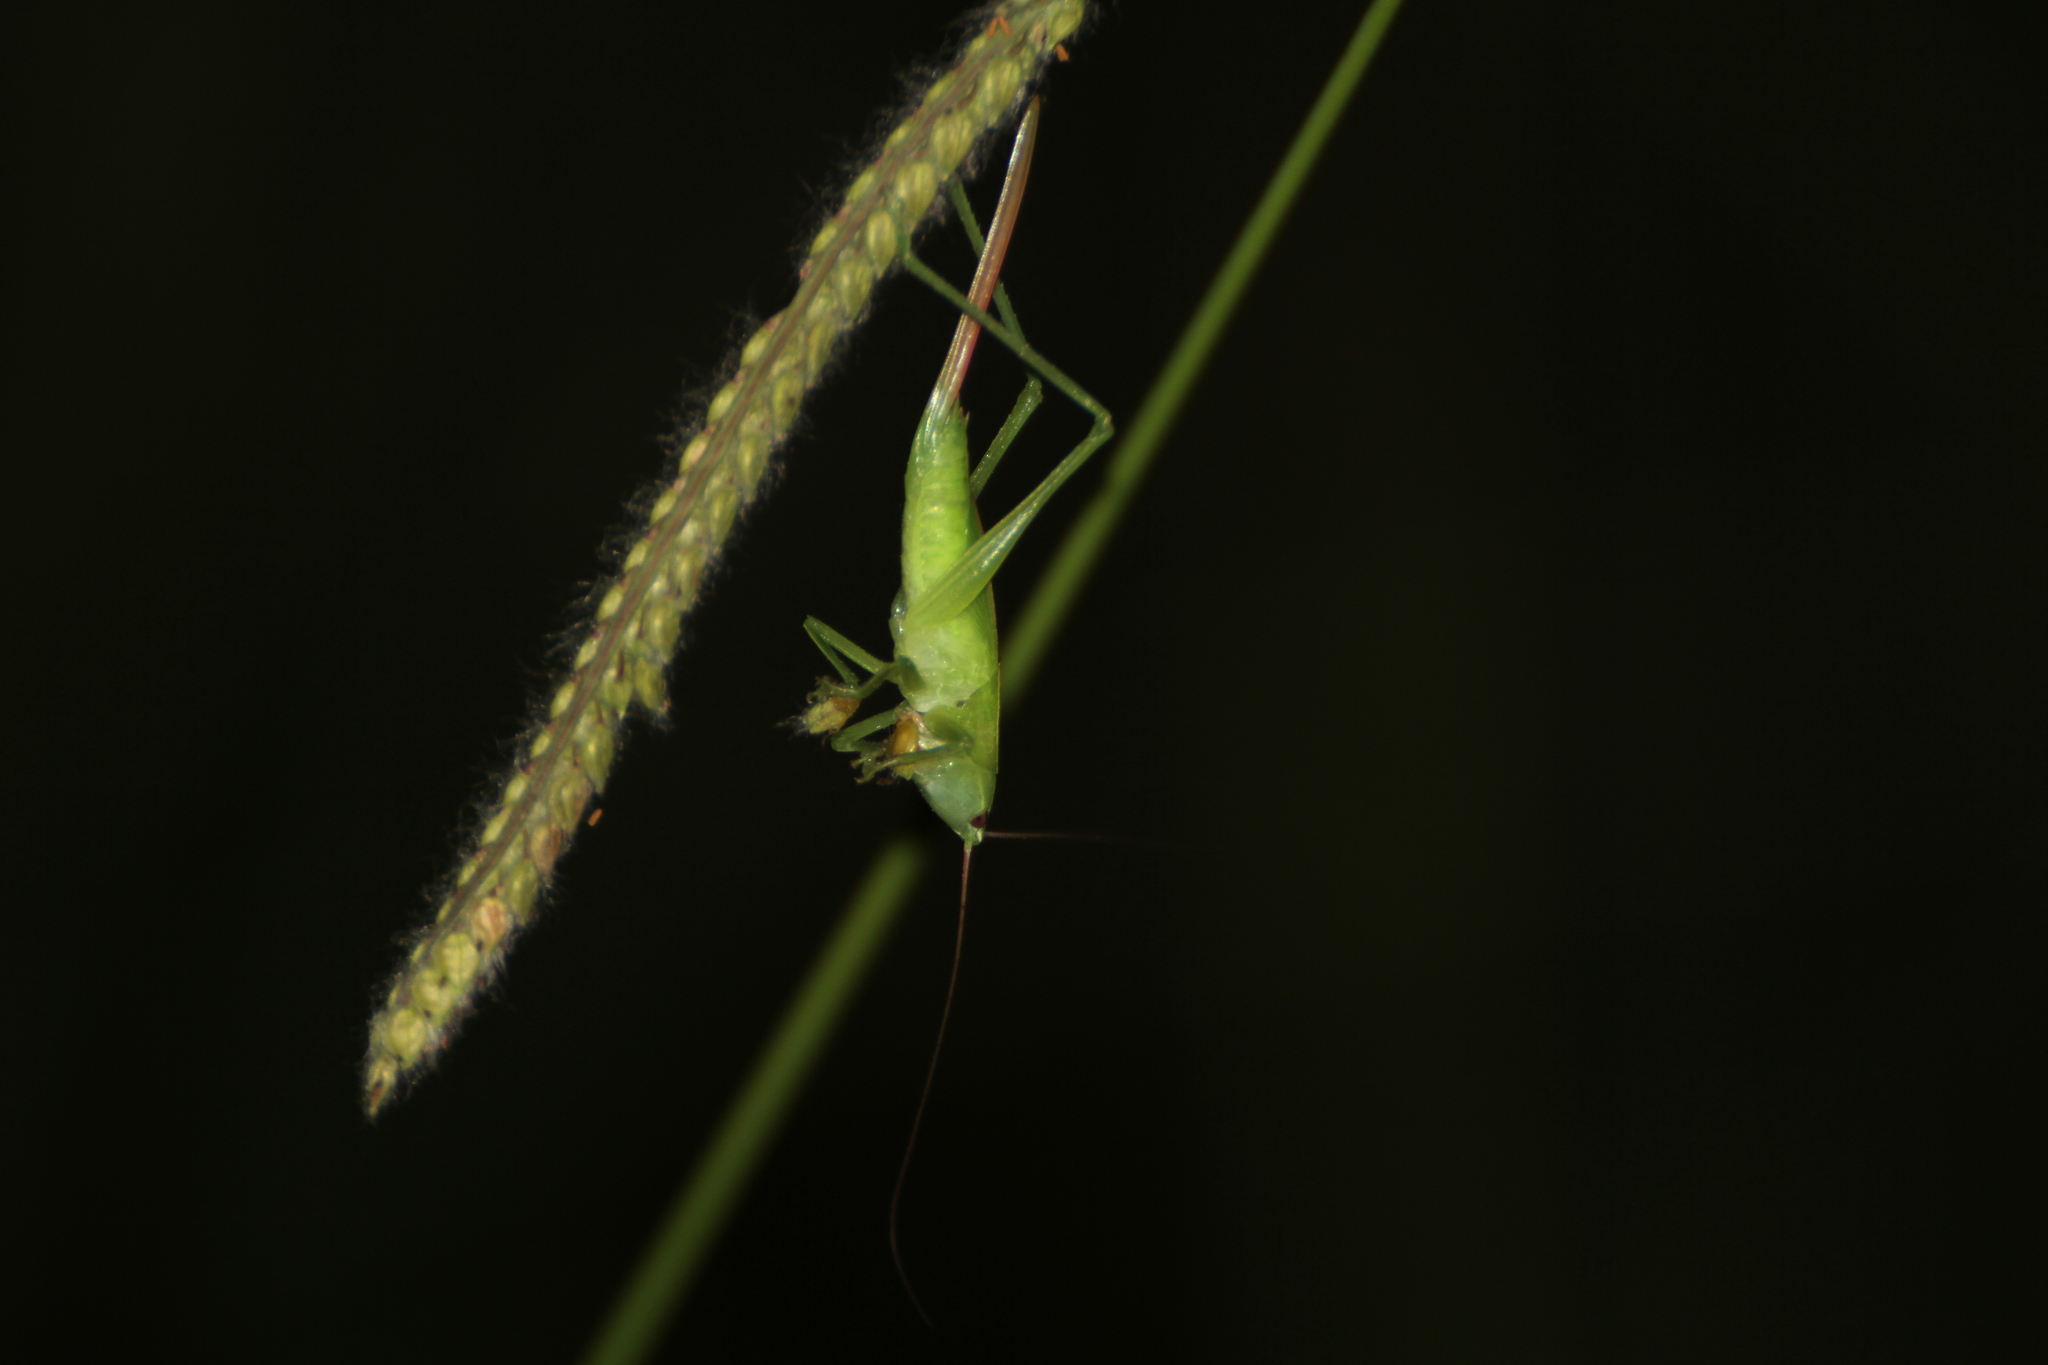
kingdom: Animalia
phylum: Arthropoda
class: Insecta
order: Orthoptera
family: Tettigoniidae
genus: Ruspolia
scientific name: Ruspolia nitidula
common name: Large conehead
